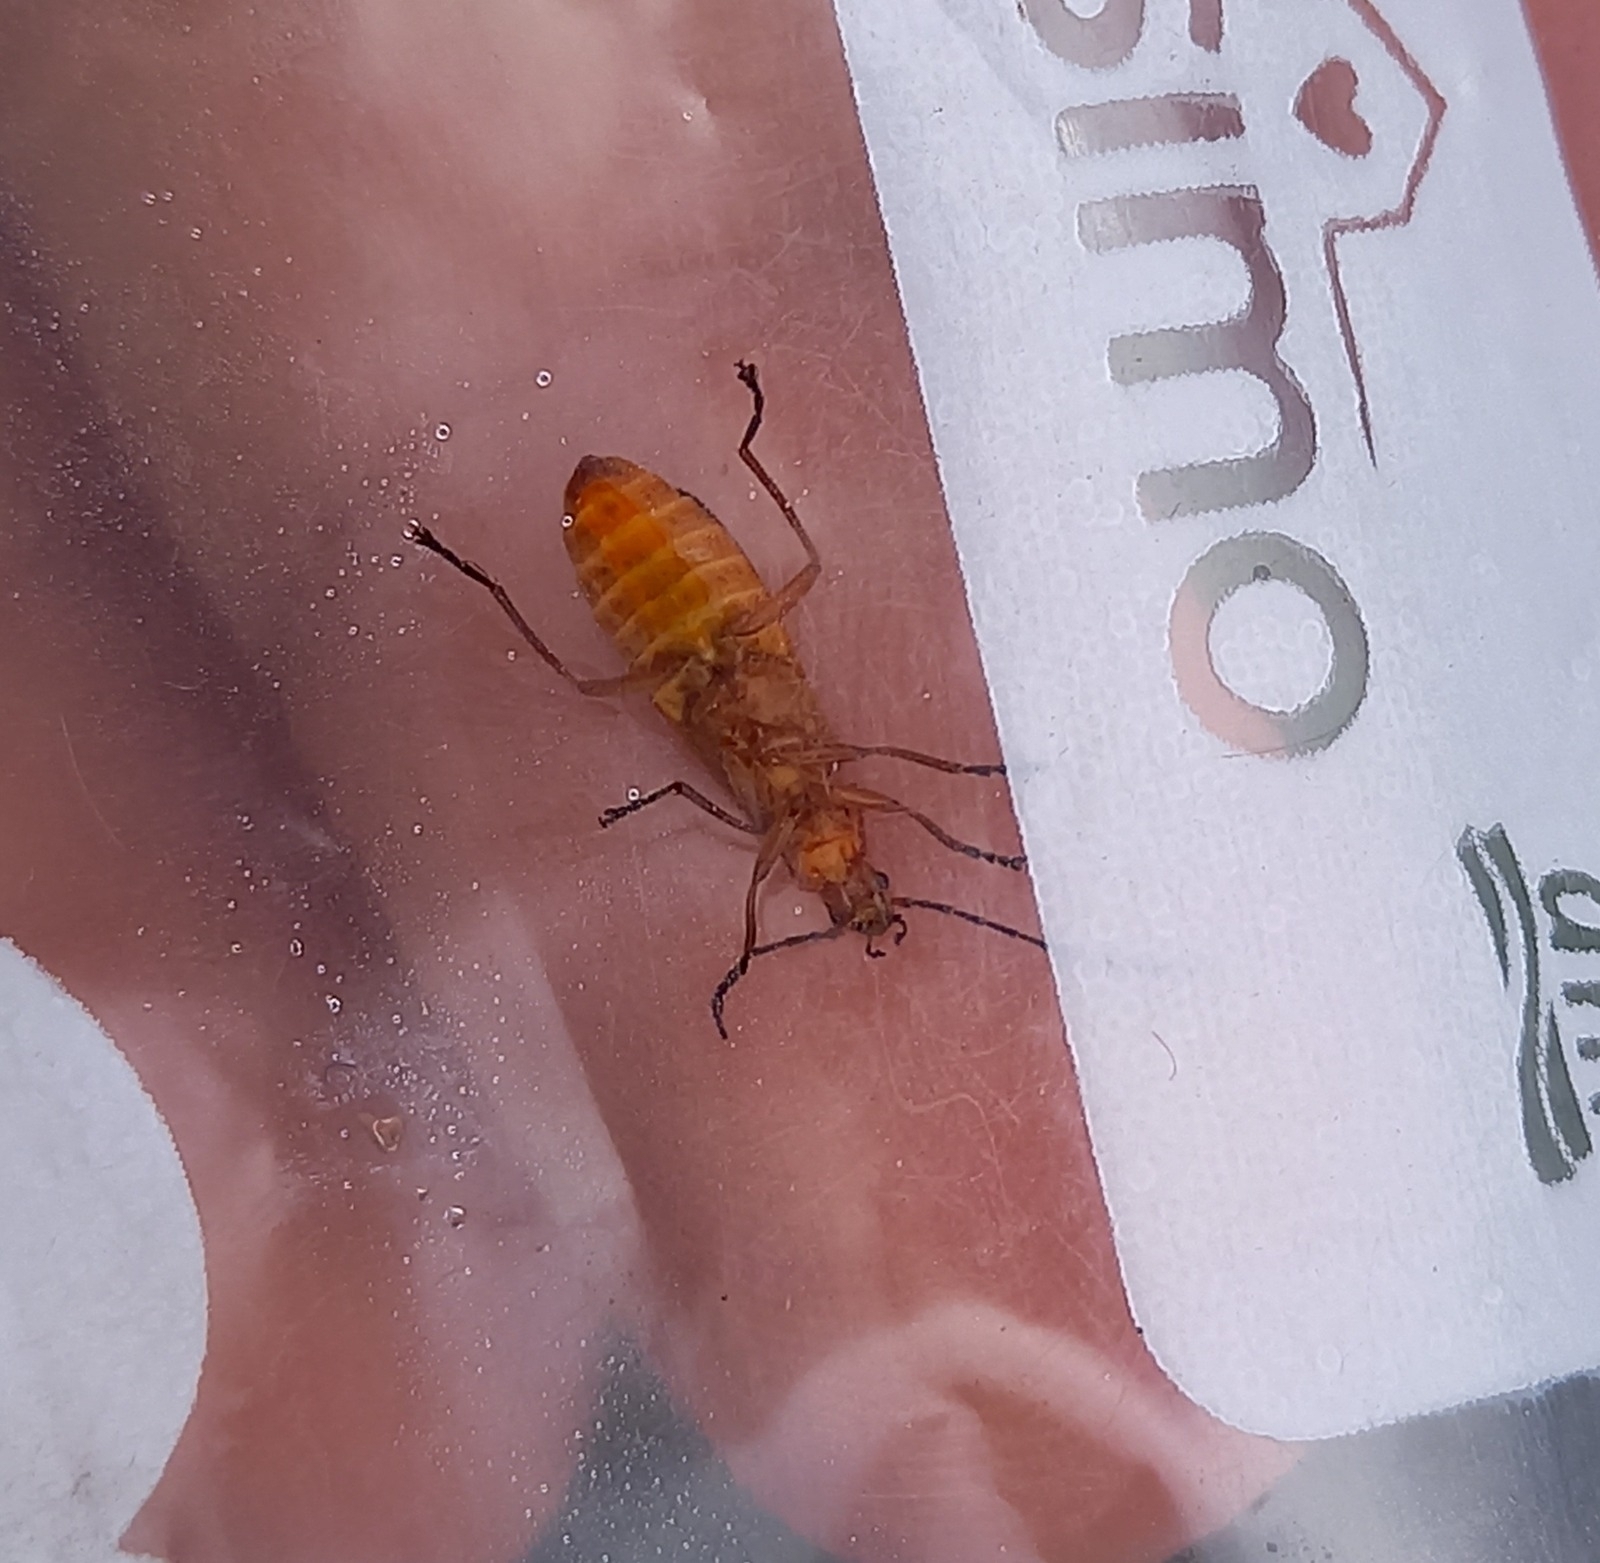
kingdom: Animalia
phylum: Arthropoda
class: Insecta
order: Coleoptera
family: Cantharidae
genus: Rhagonycha
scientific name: Rhagonycha fulva
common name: Common red soldier beetle
